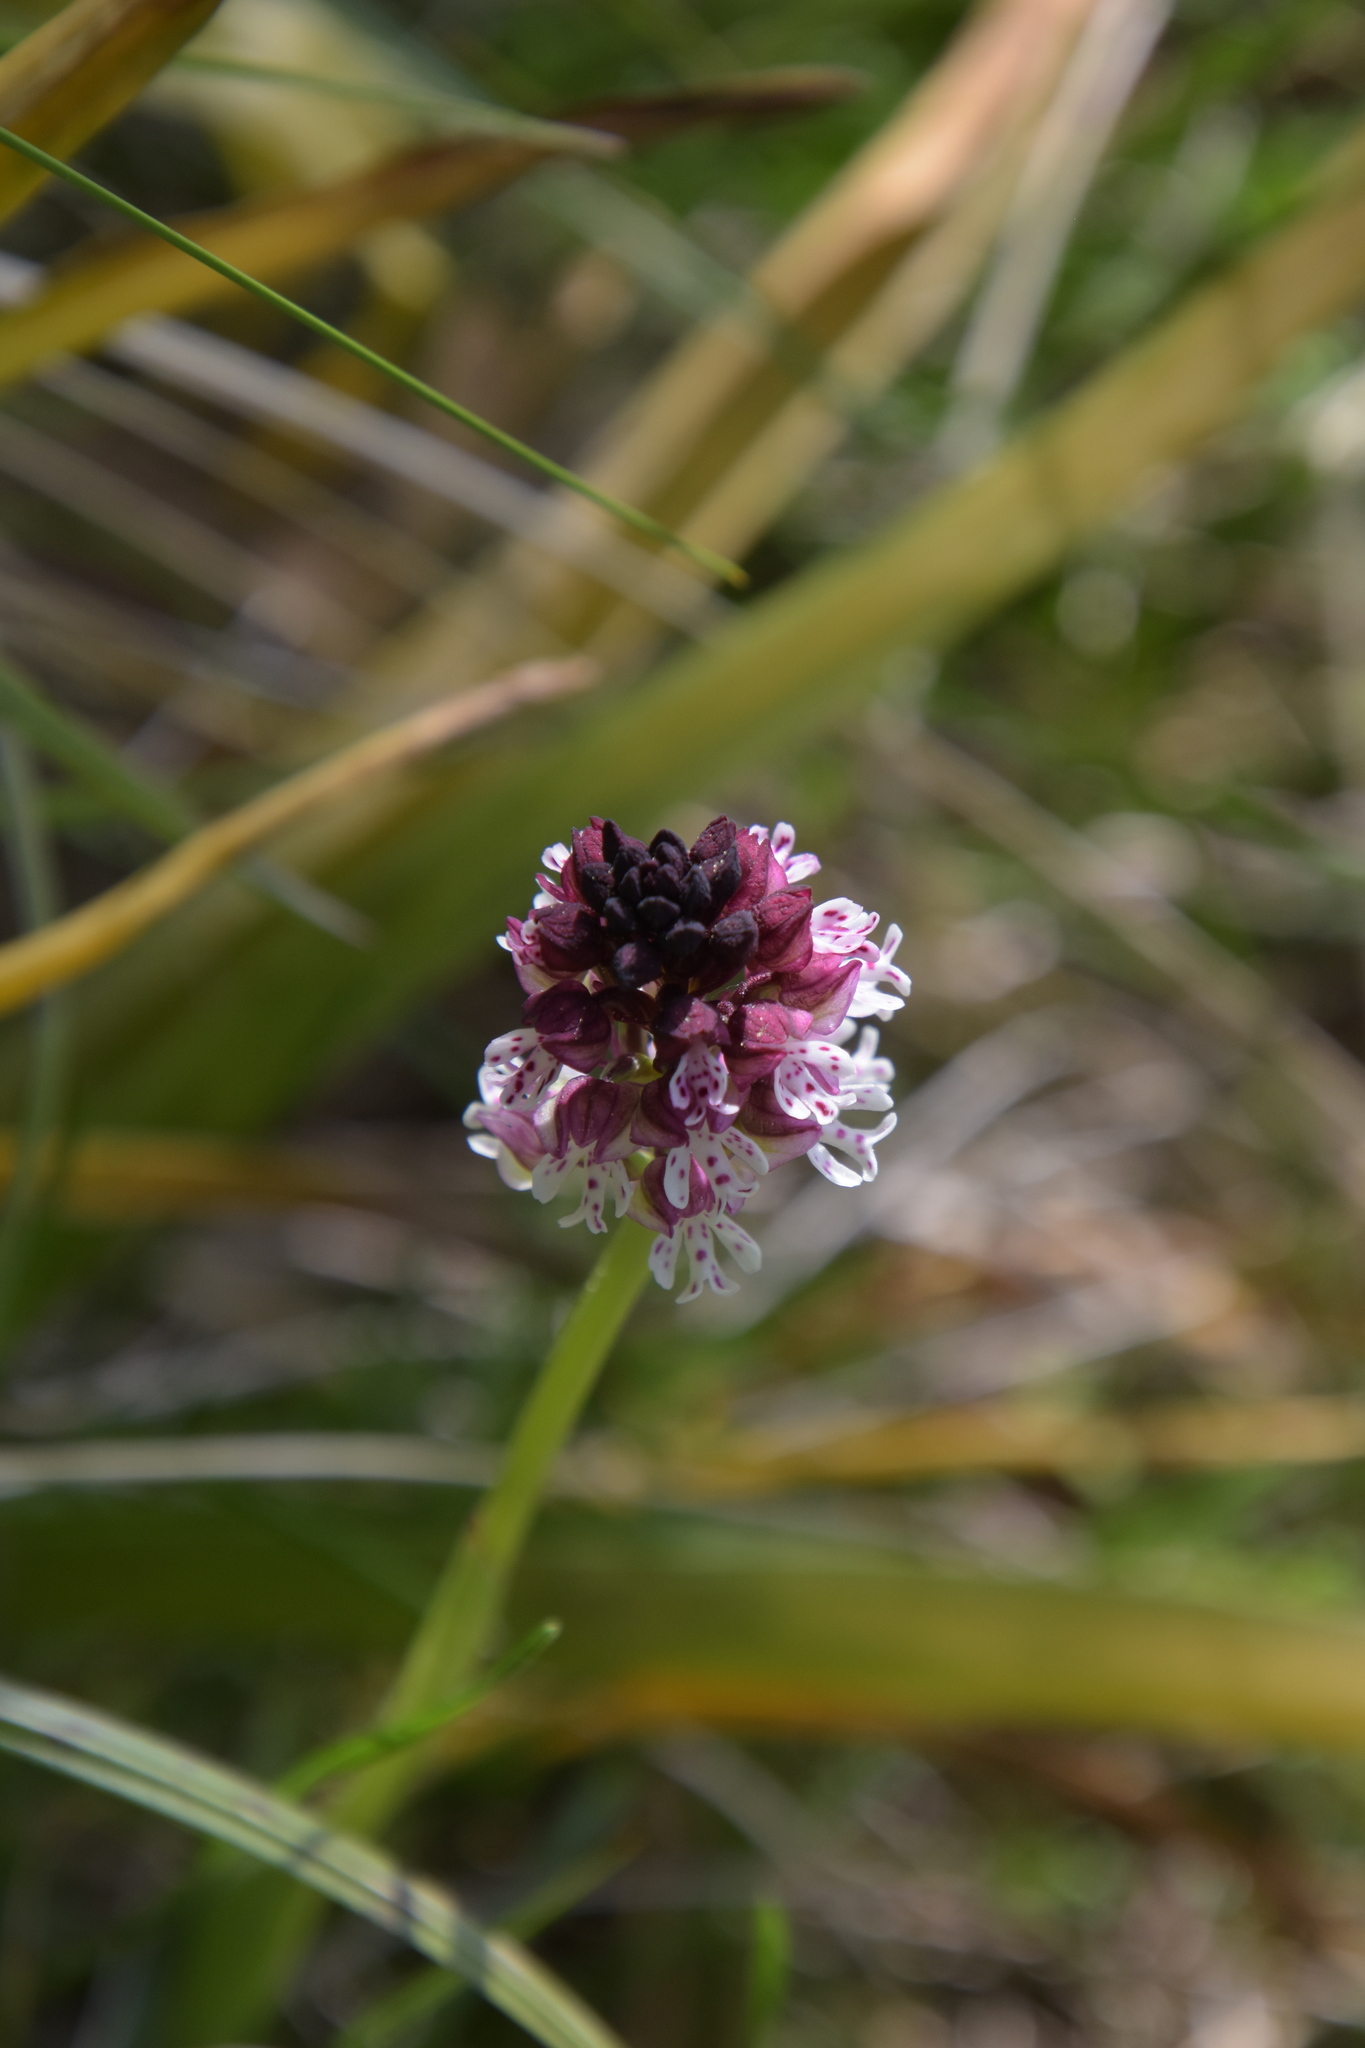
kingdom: Plantae
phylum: Tracheophyta
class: Liliopsida
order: Asparagales
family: Orchidaceae
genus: Neotinea
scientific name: Neotinea ustulata
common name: Burnt orchid
